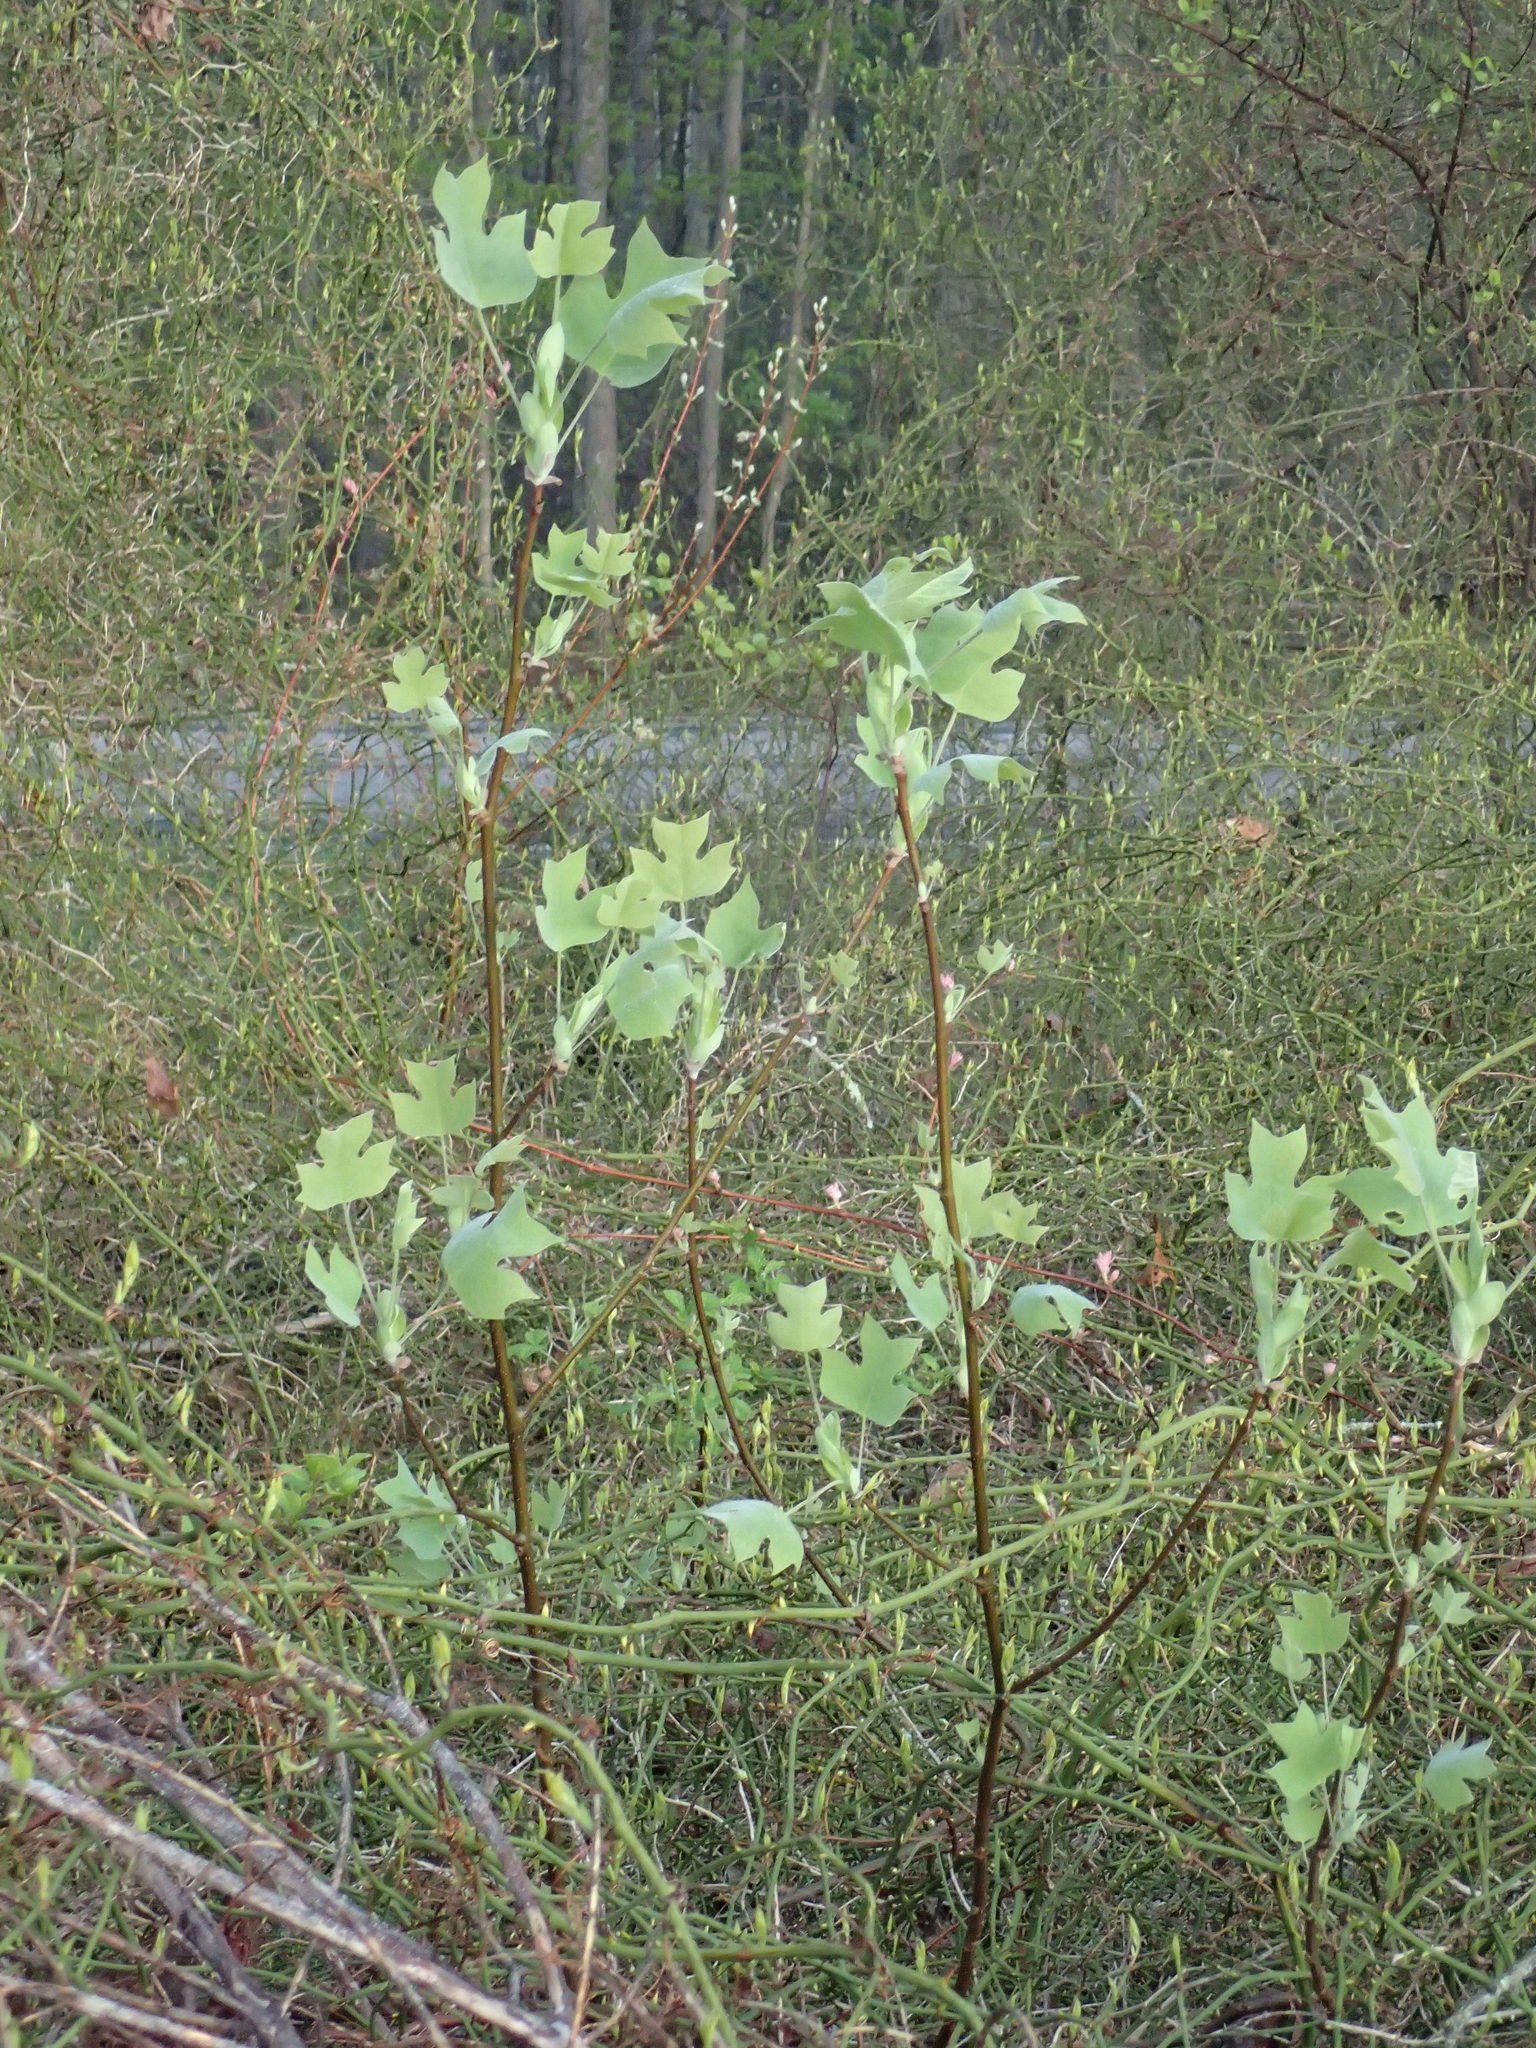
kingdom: Plantae
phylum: Tracheophyta
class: Magnoliopsida
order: Magnoliales
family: Magnoliaceae
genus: Liriodendron
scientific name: Liriodendron tulipifera
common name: Tulip tree
